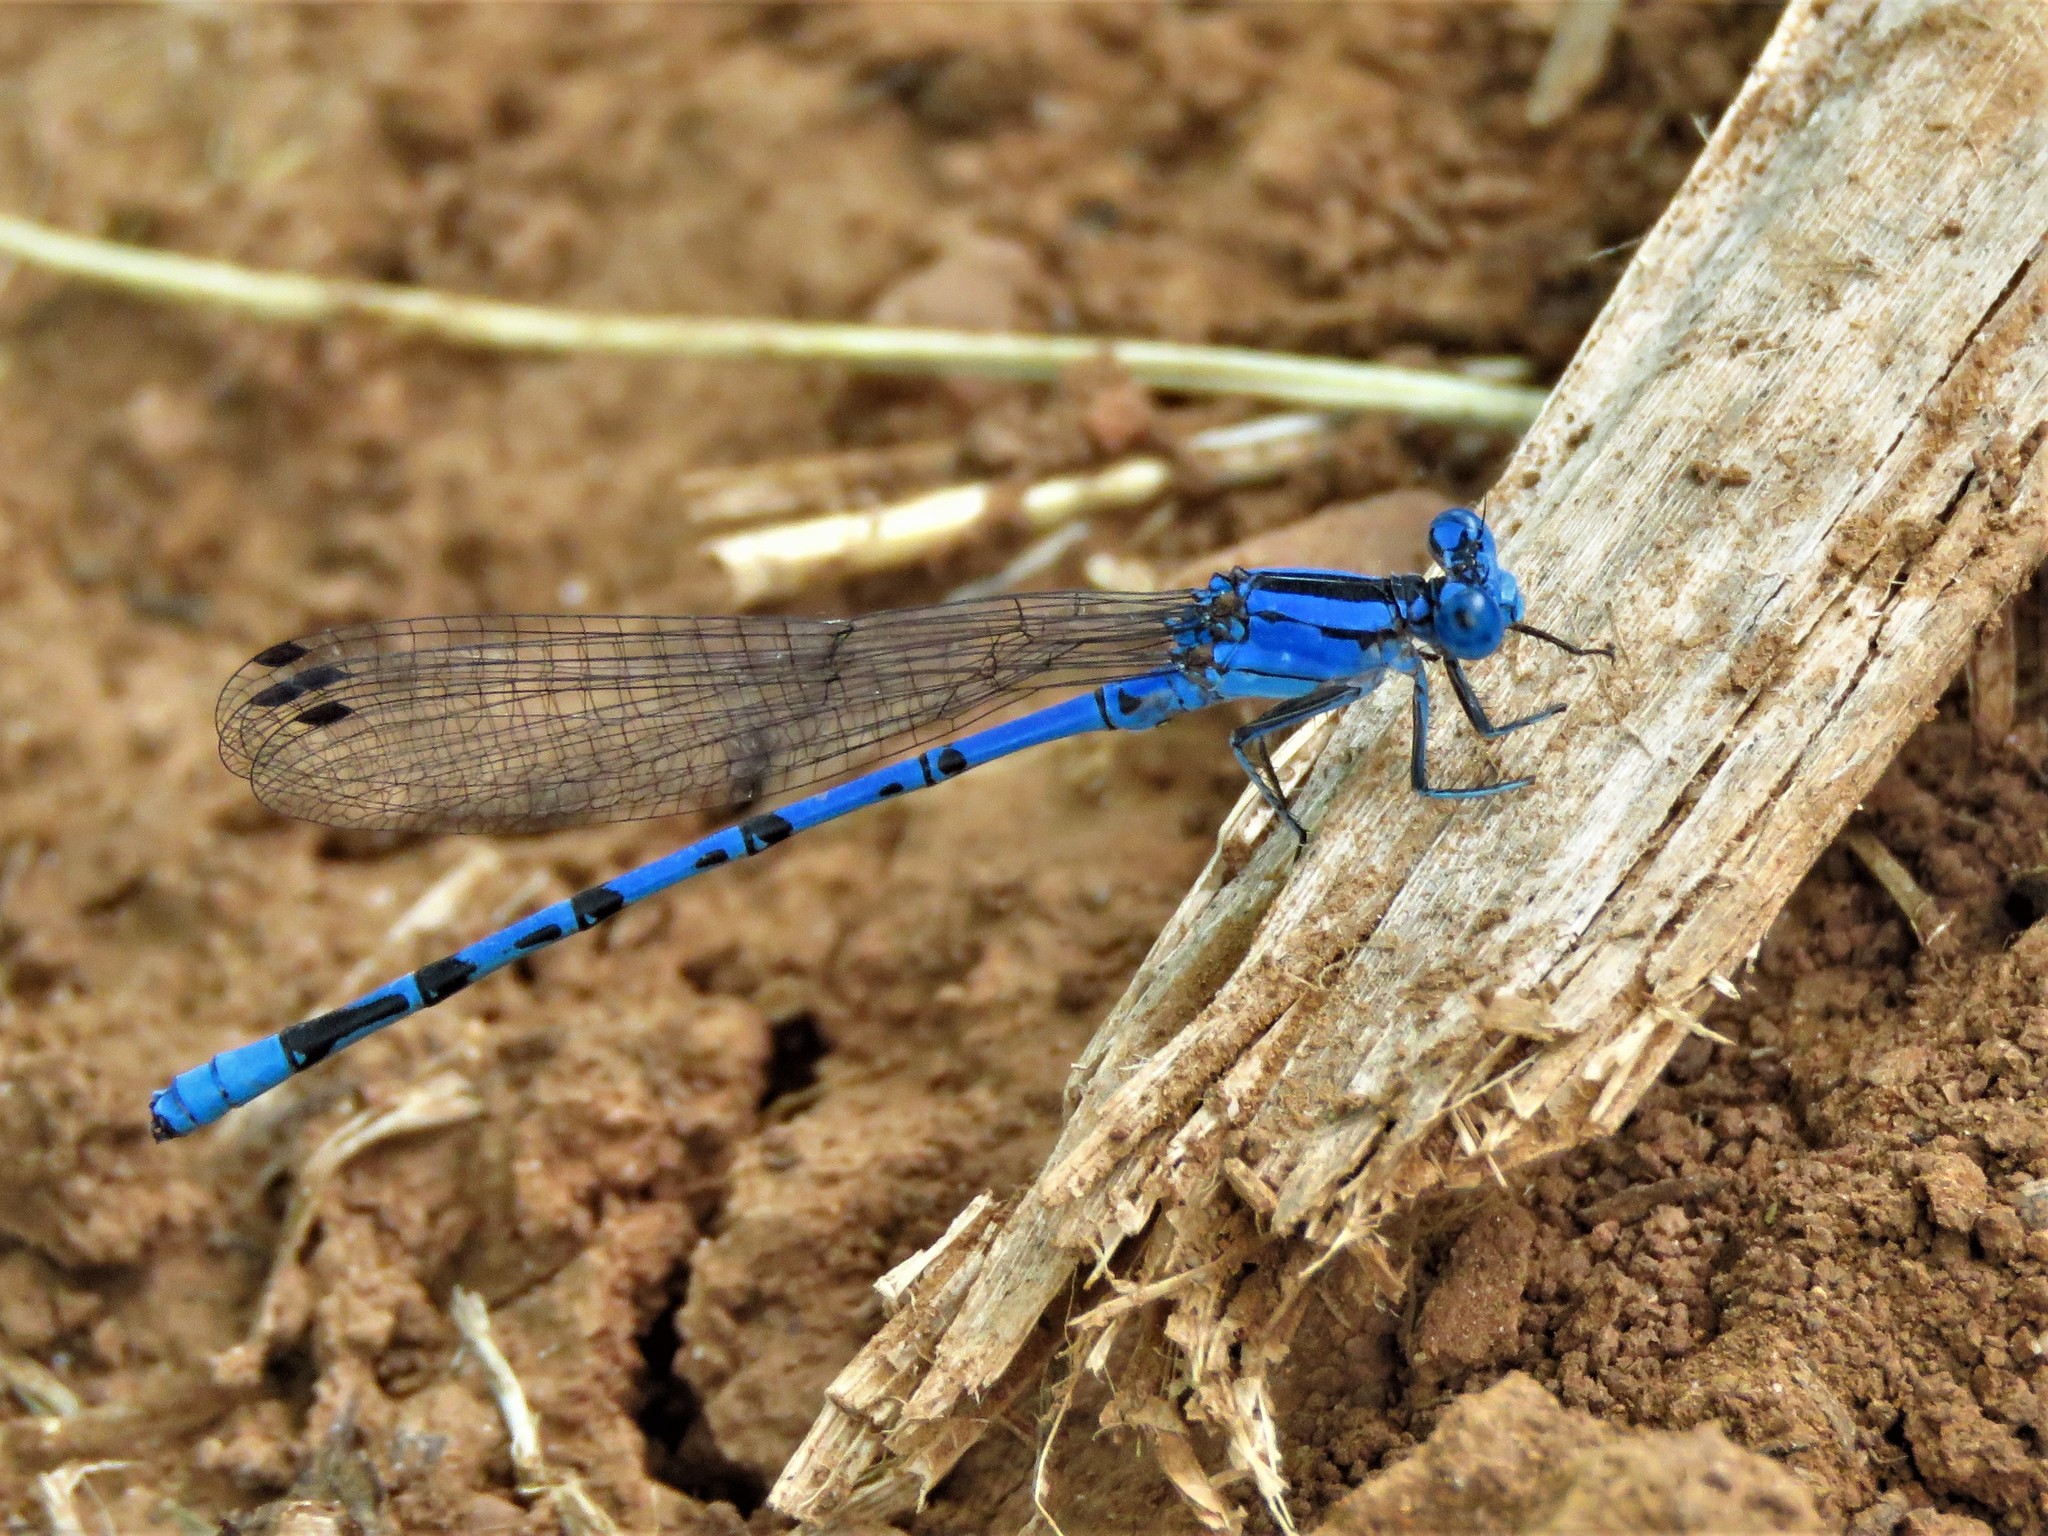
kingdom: Animalia
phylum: Arthropoda
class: Insecta
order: Odonata
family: Coenagrionidae
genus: Argia
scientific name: Argia funebris
